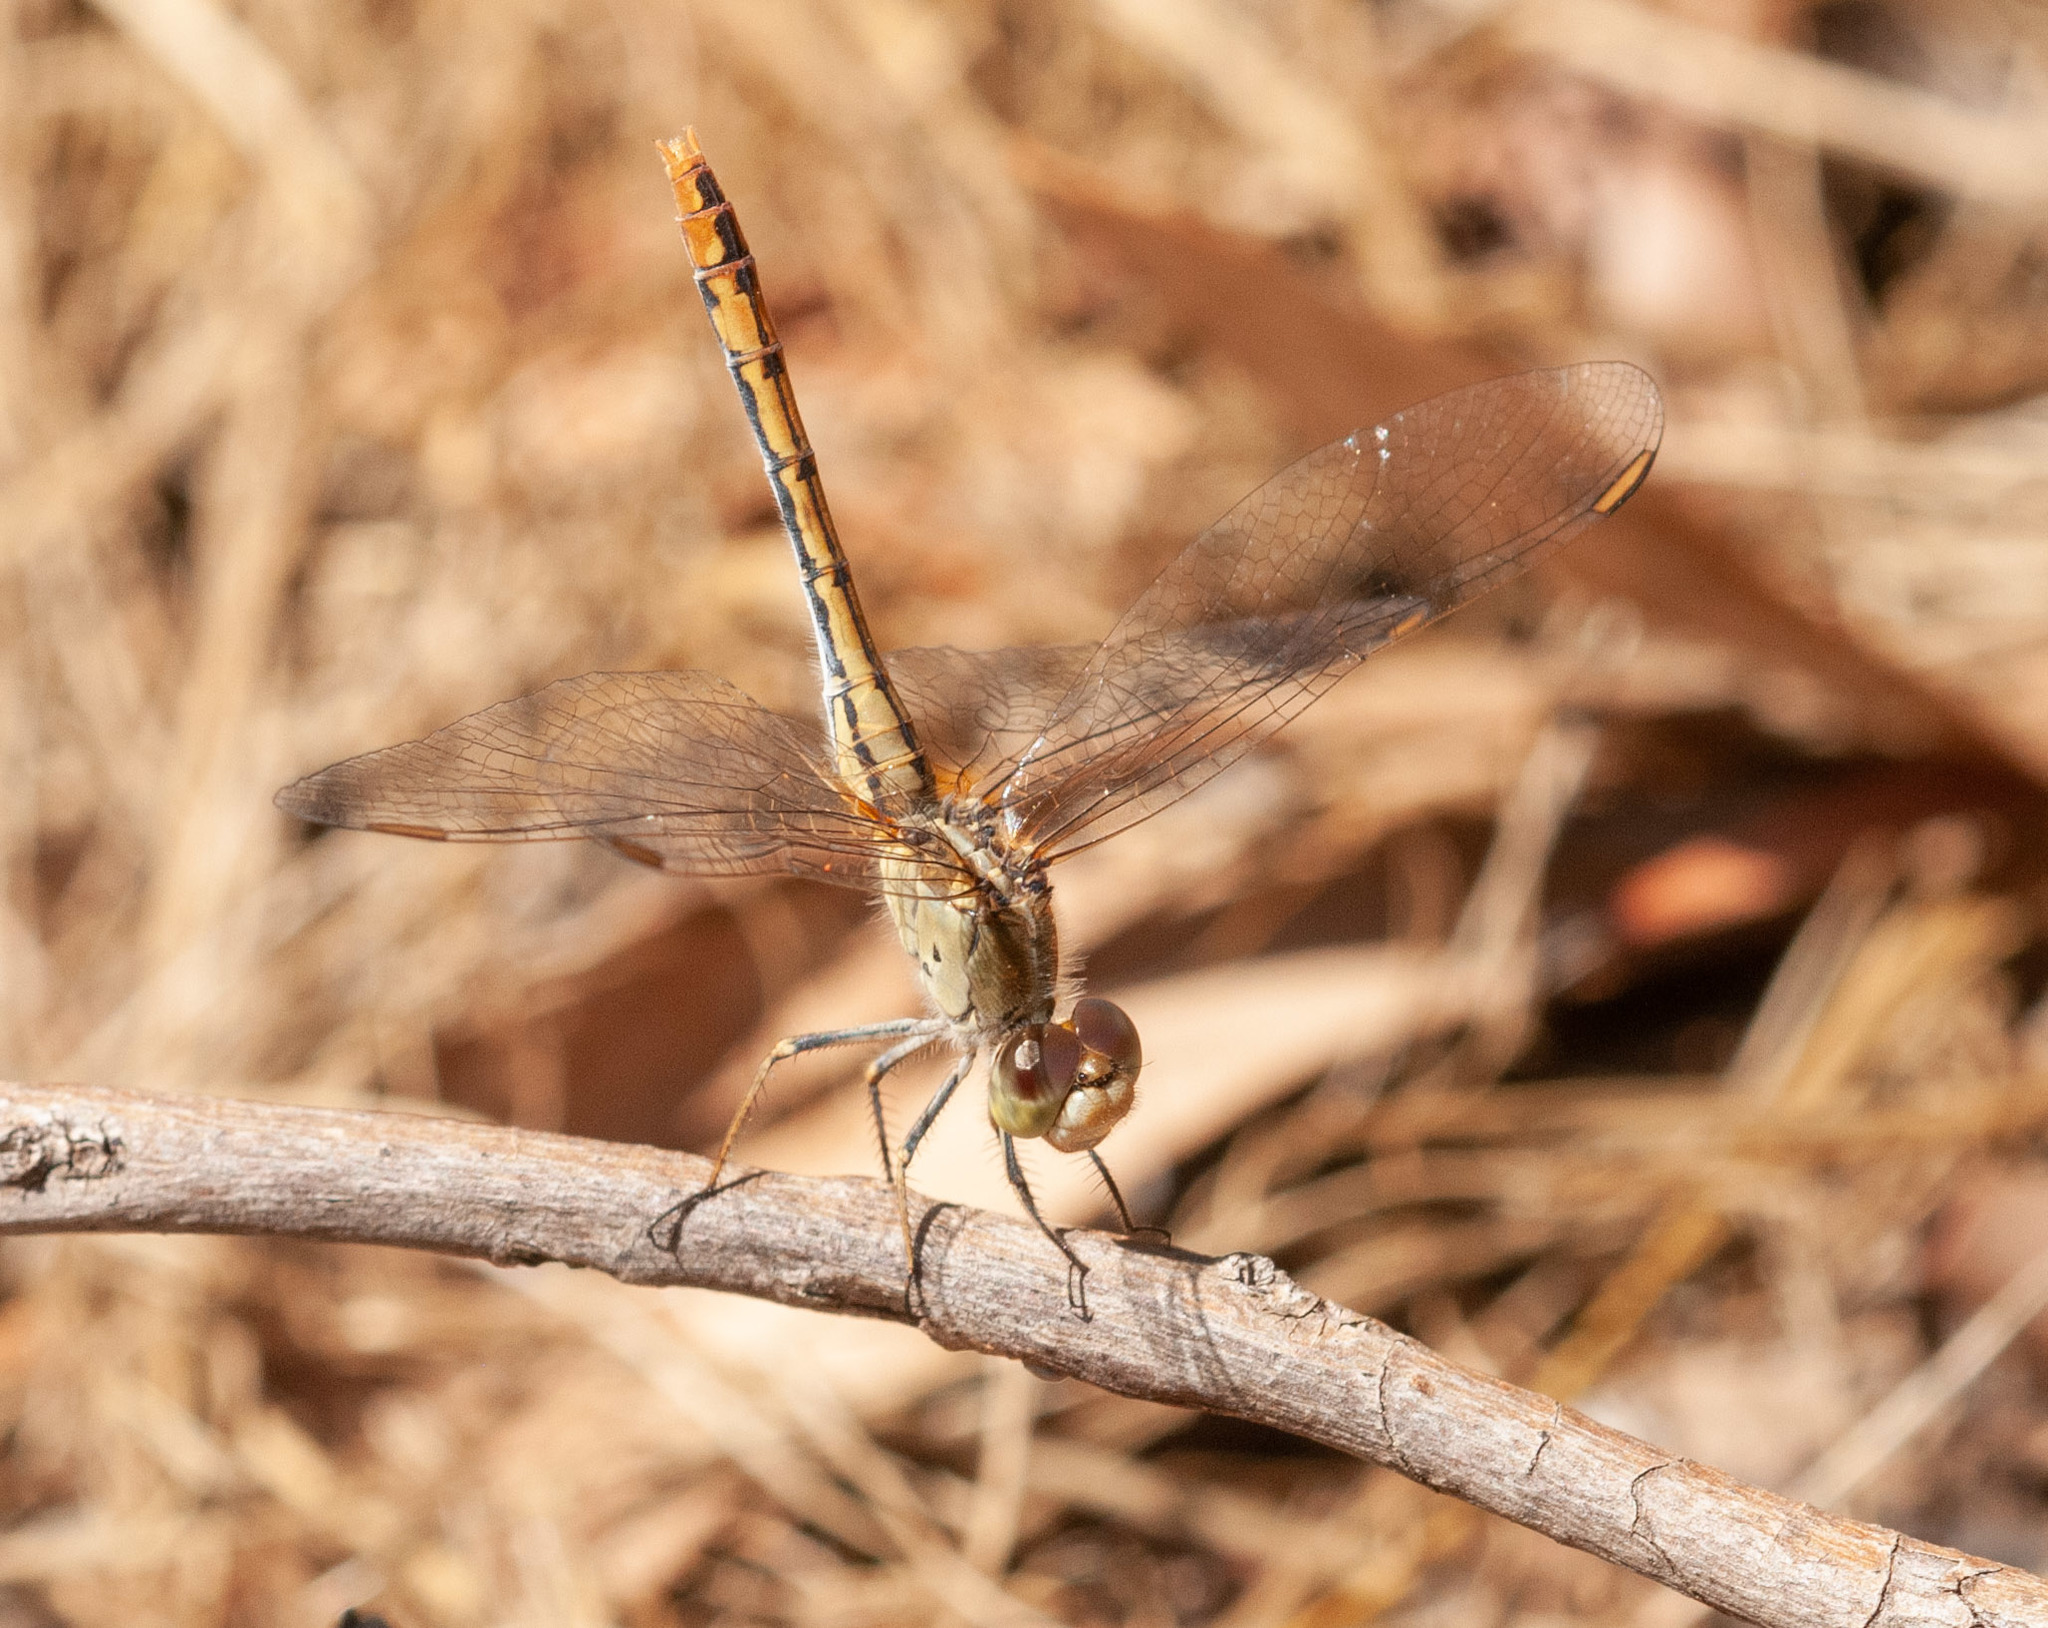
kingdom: Animalia
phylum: Arthropoda
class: Insecta
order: Odonata
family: Libellulidae
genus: Diplacodes
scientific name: Diplacodes bipunctata
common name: Red percher dragonfly
